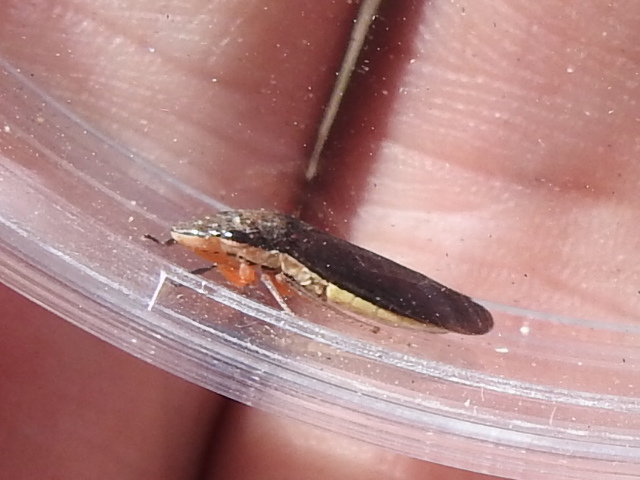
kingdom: Animalia
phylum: Arthropoda
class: Insecta
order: Hemiptera
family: Cicadellidae
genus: Homalodisca
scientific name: Homalodisca insolita
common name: Johnson grass sharpshooter
